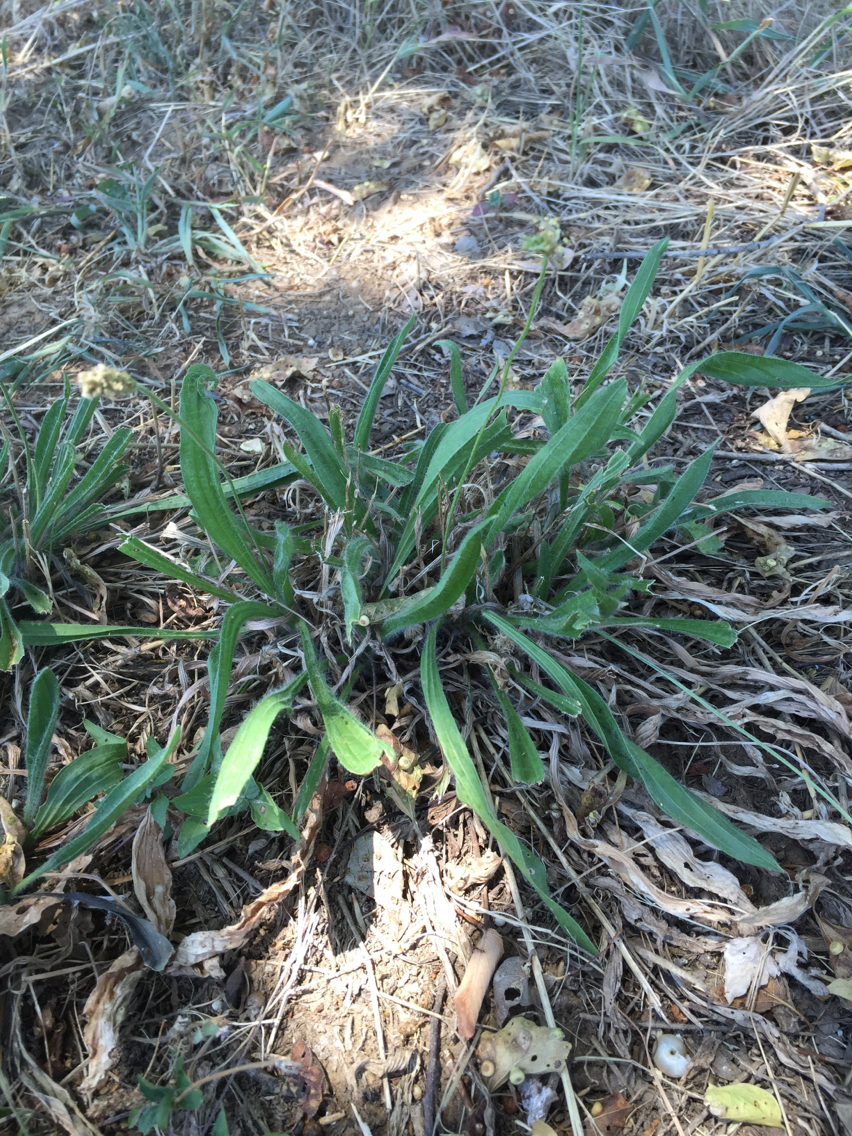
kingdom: Plantae
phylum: Tracheophyta
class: Magnoliopsida
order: Lamiales
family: Plantaginaceae
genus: Plantago
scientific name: Plantago lanceolata
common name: Ribwort plantain
